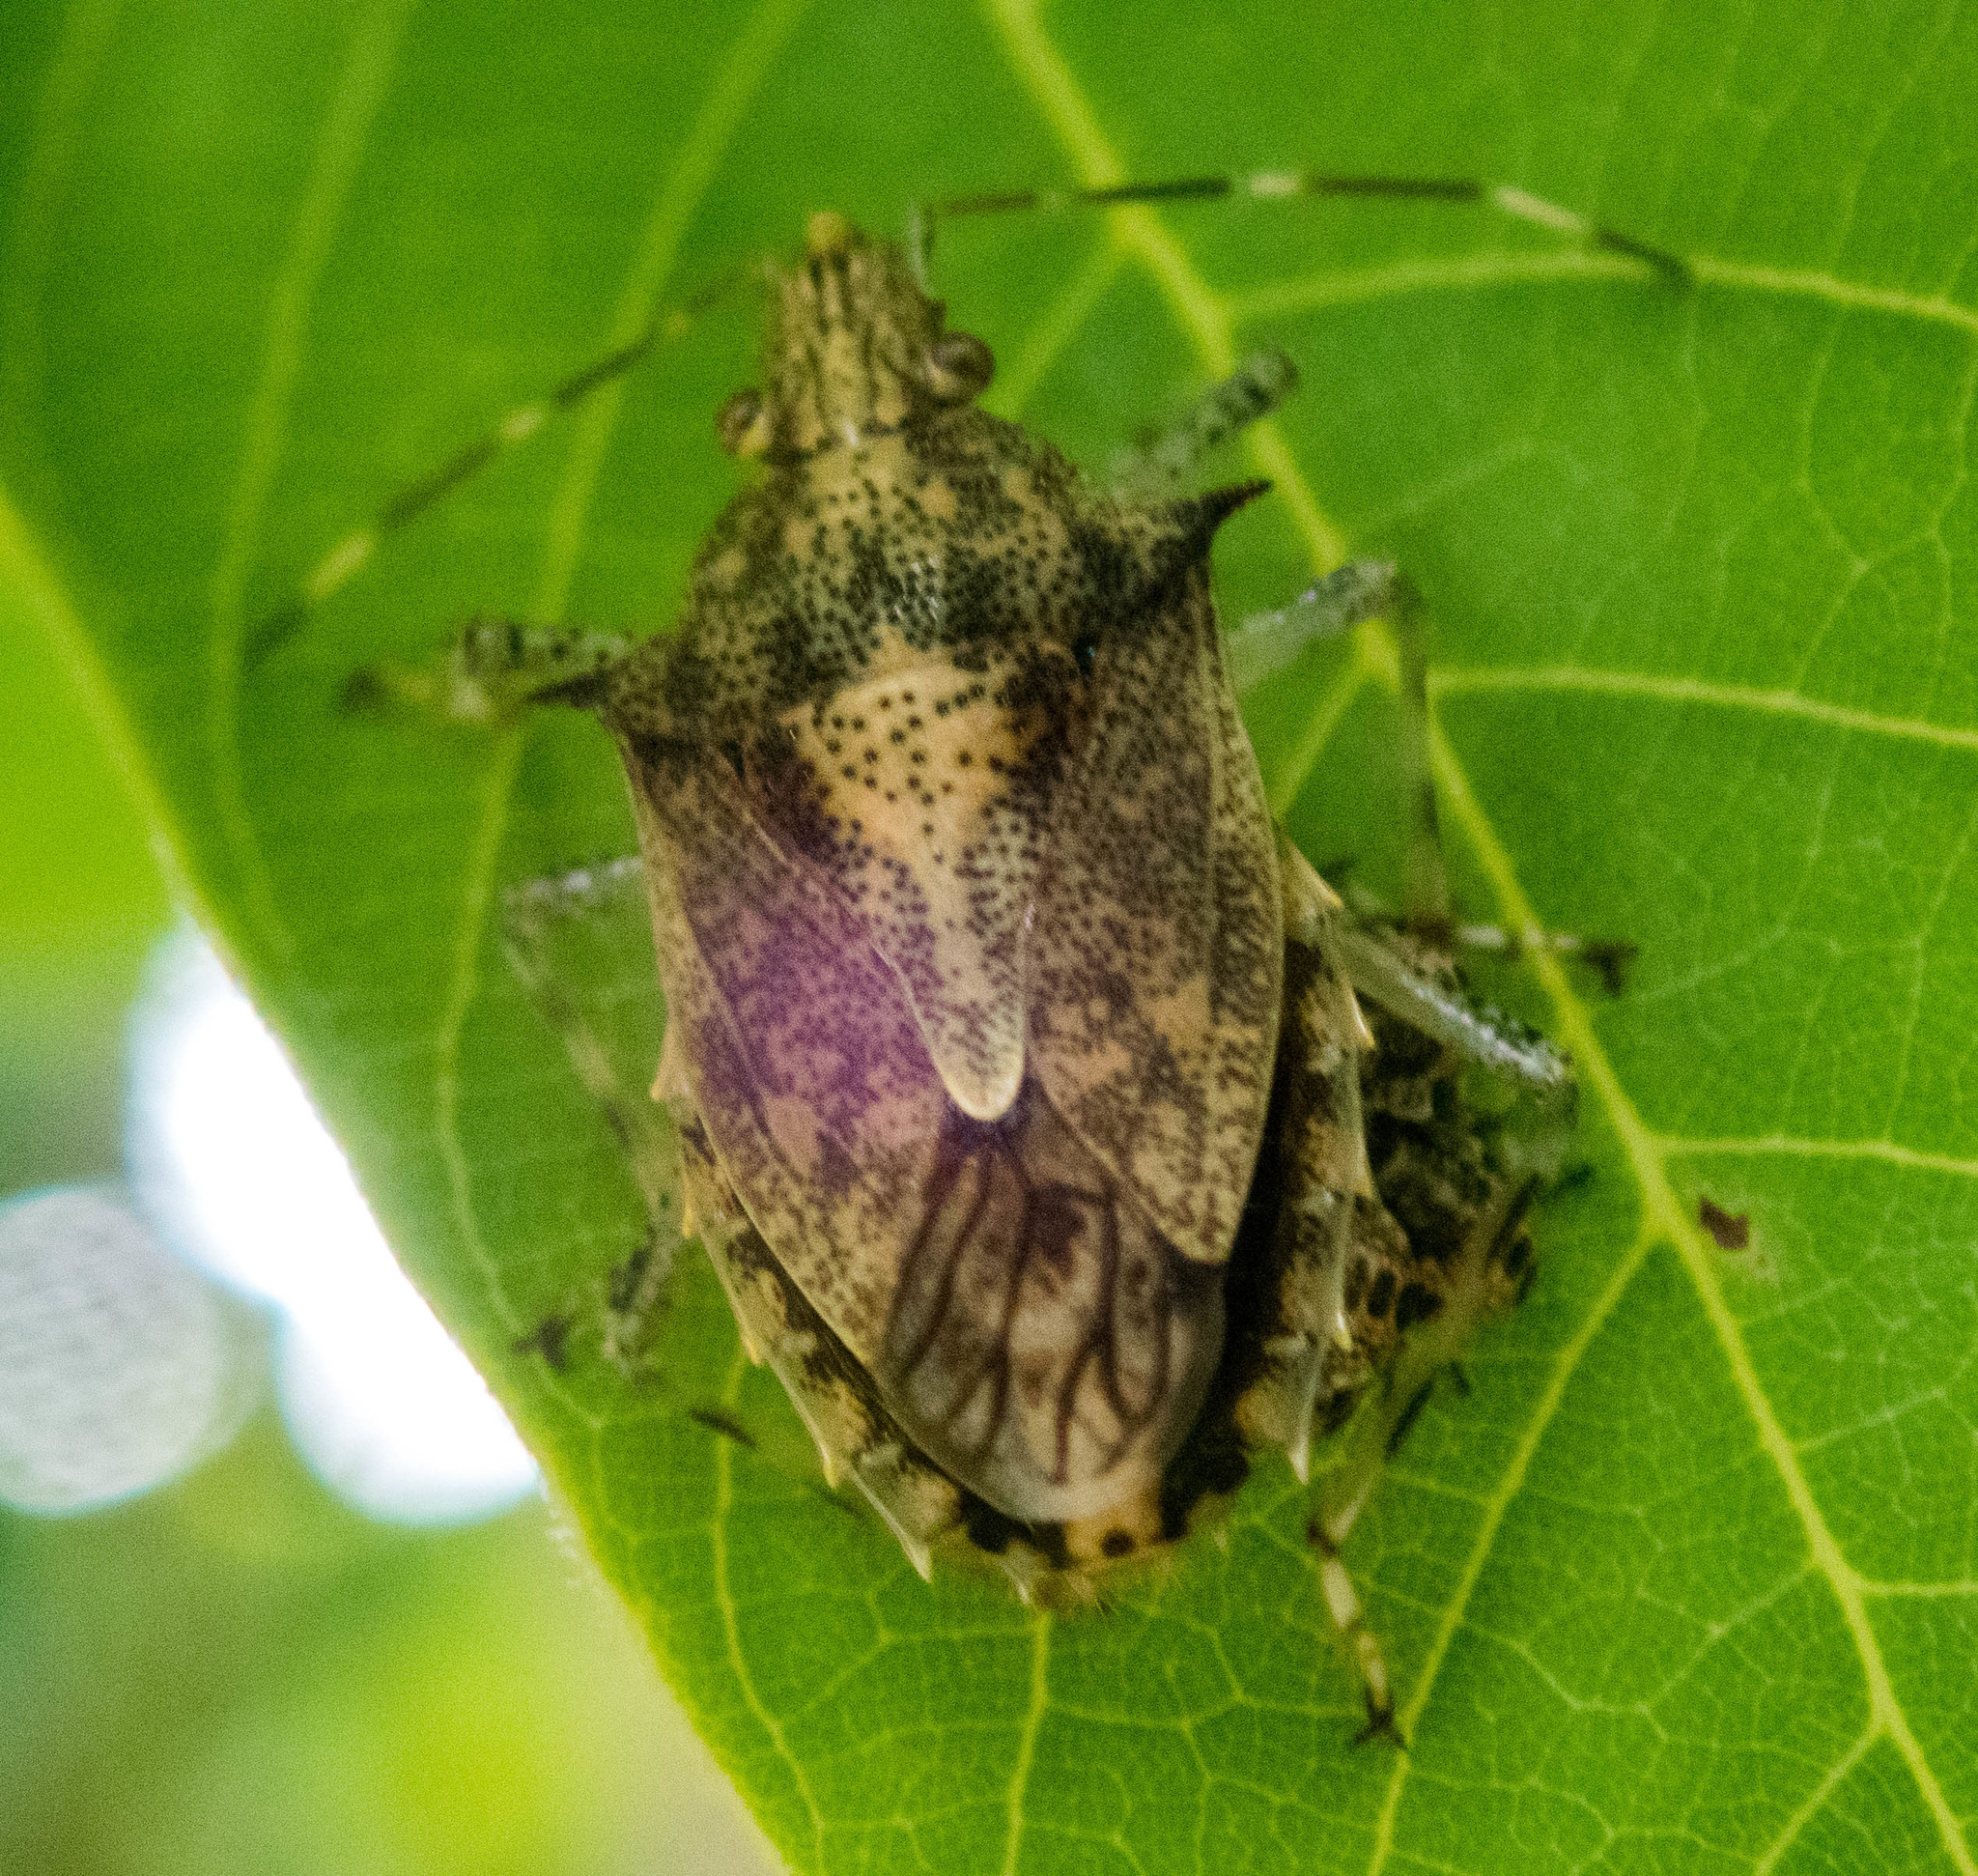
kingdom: Animalia
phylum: Arthropoda
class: Insecta
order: Hemiptera
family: Pentatomidae
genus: Bromocoris
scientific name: Bromocoris
